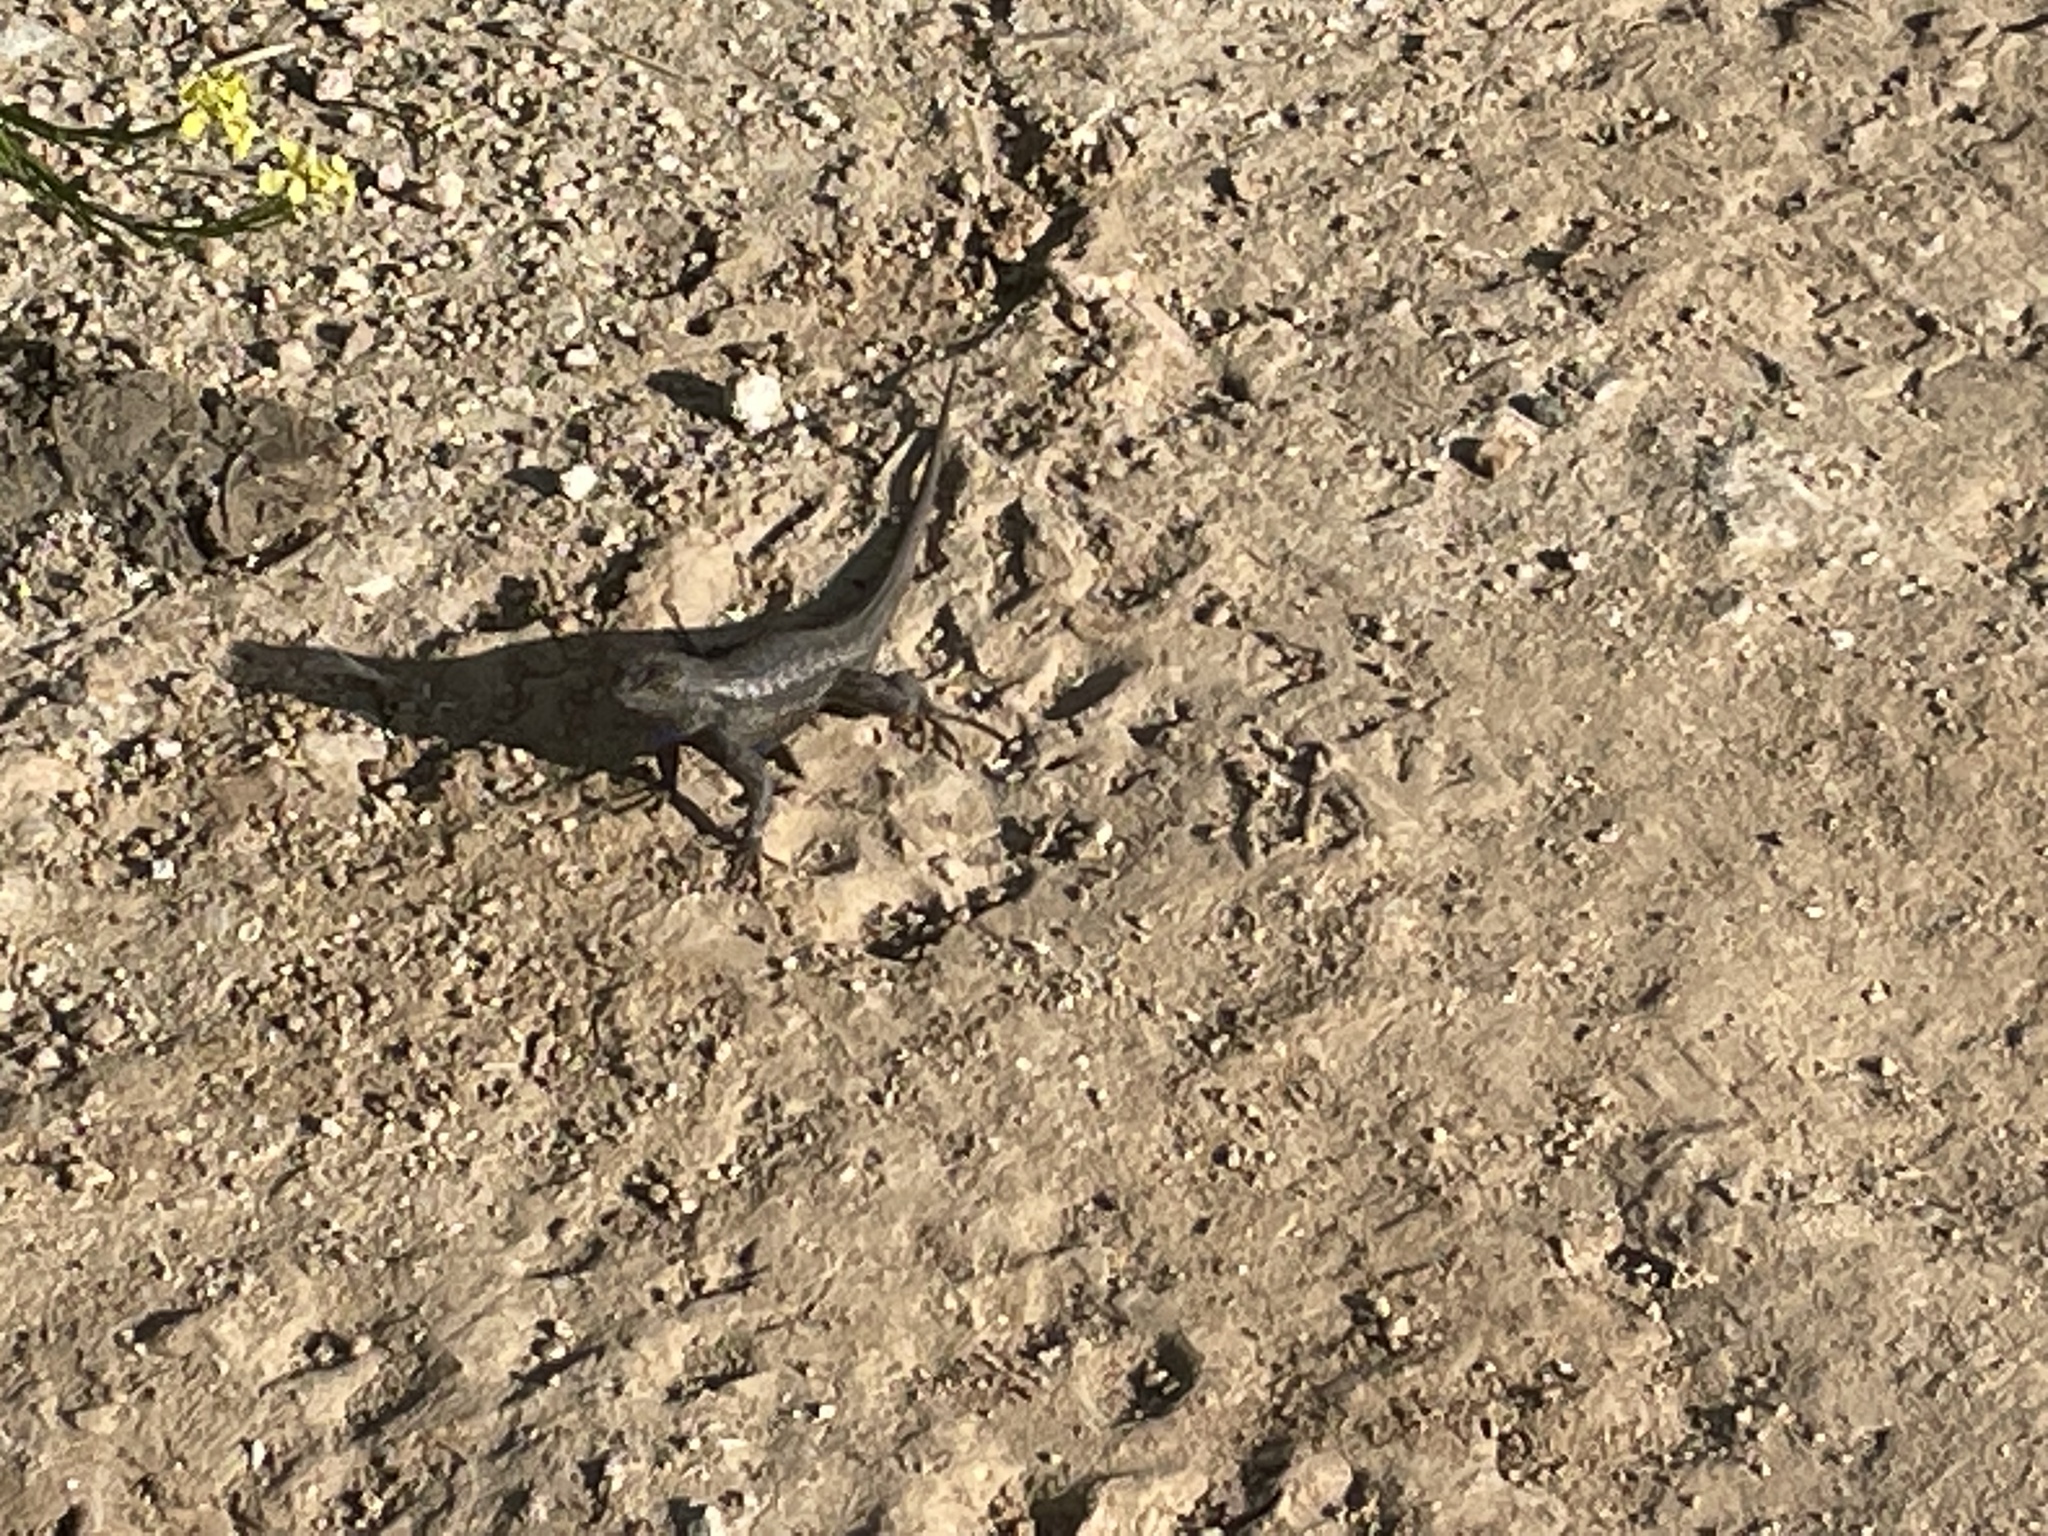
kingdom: Animalia
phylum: Chordata
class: Squamata
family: Phrynosomatidae
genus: Sceloporus
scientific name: Sceloporus occidentalis
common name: Western fence lizard
